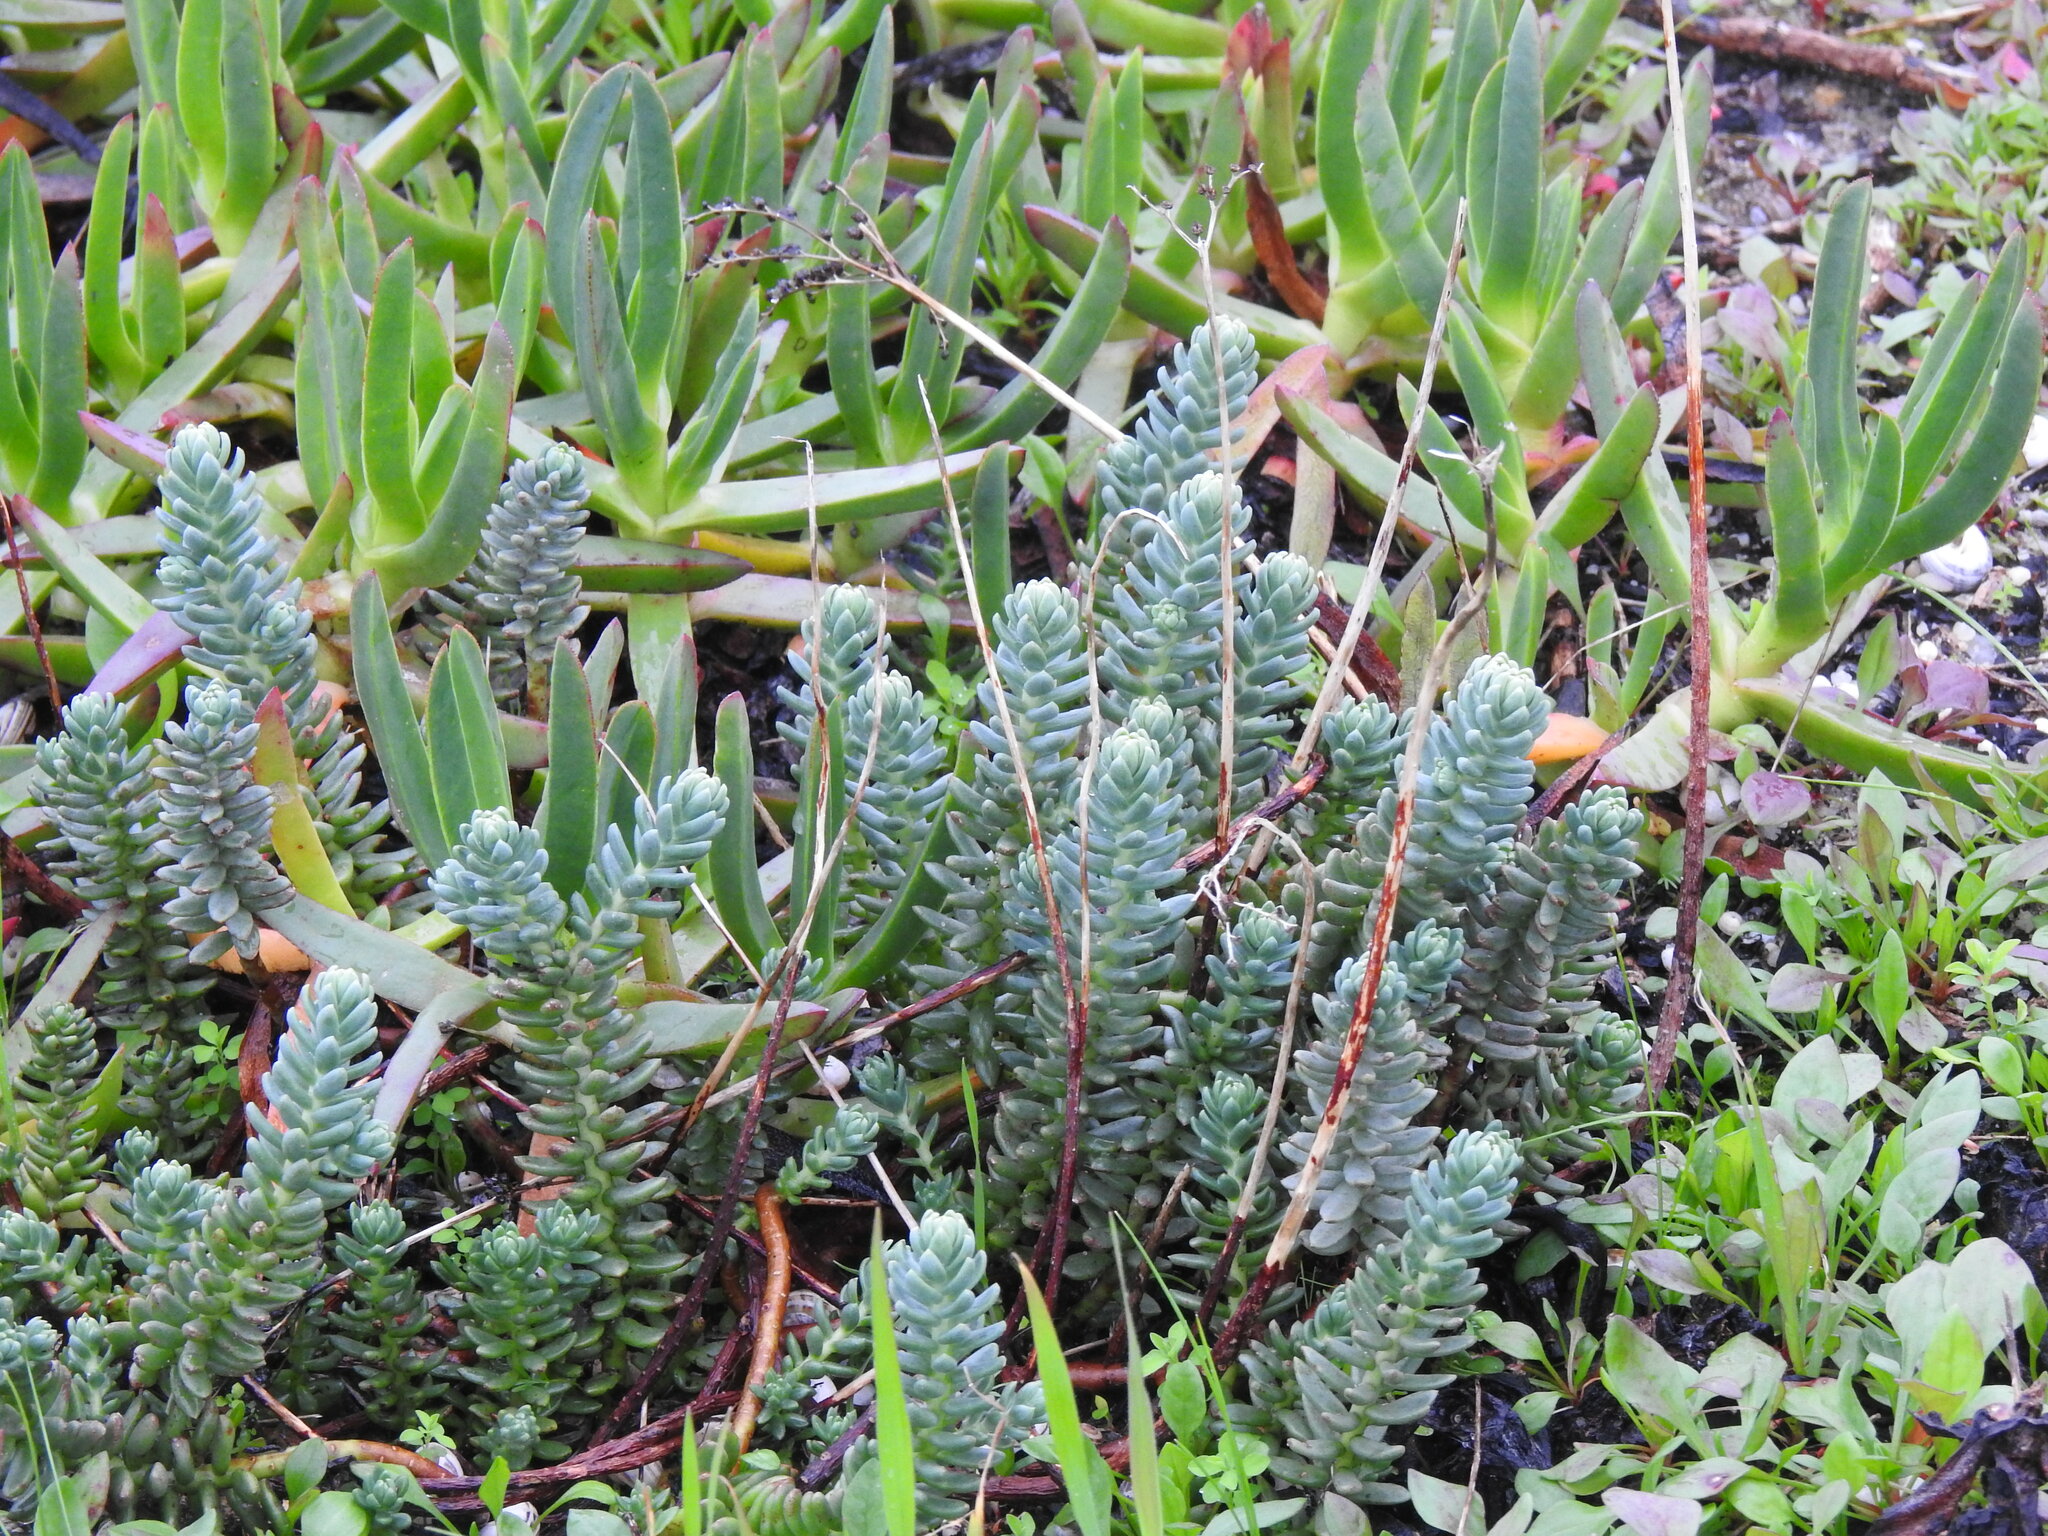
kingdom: Plantae
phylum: Tracheophyta
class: Magnoliopsida
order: Saxifragales
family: Crassulaceae
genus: Petrosedum
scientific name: Petrosedum sediforme
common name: Pale stonecrop
